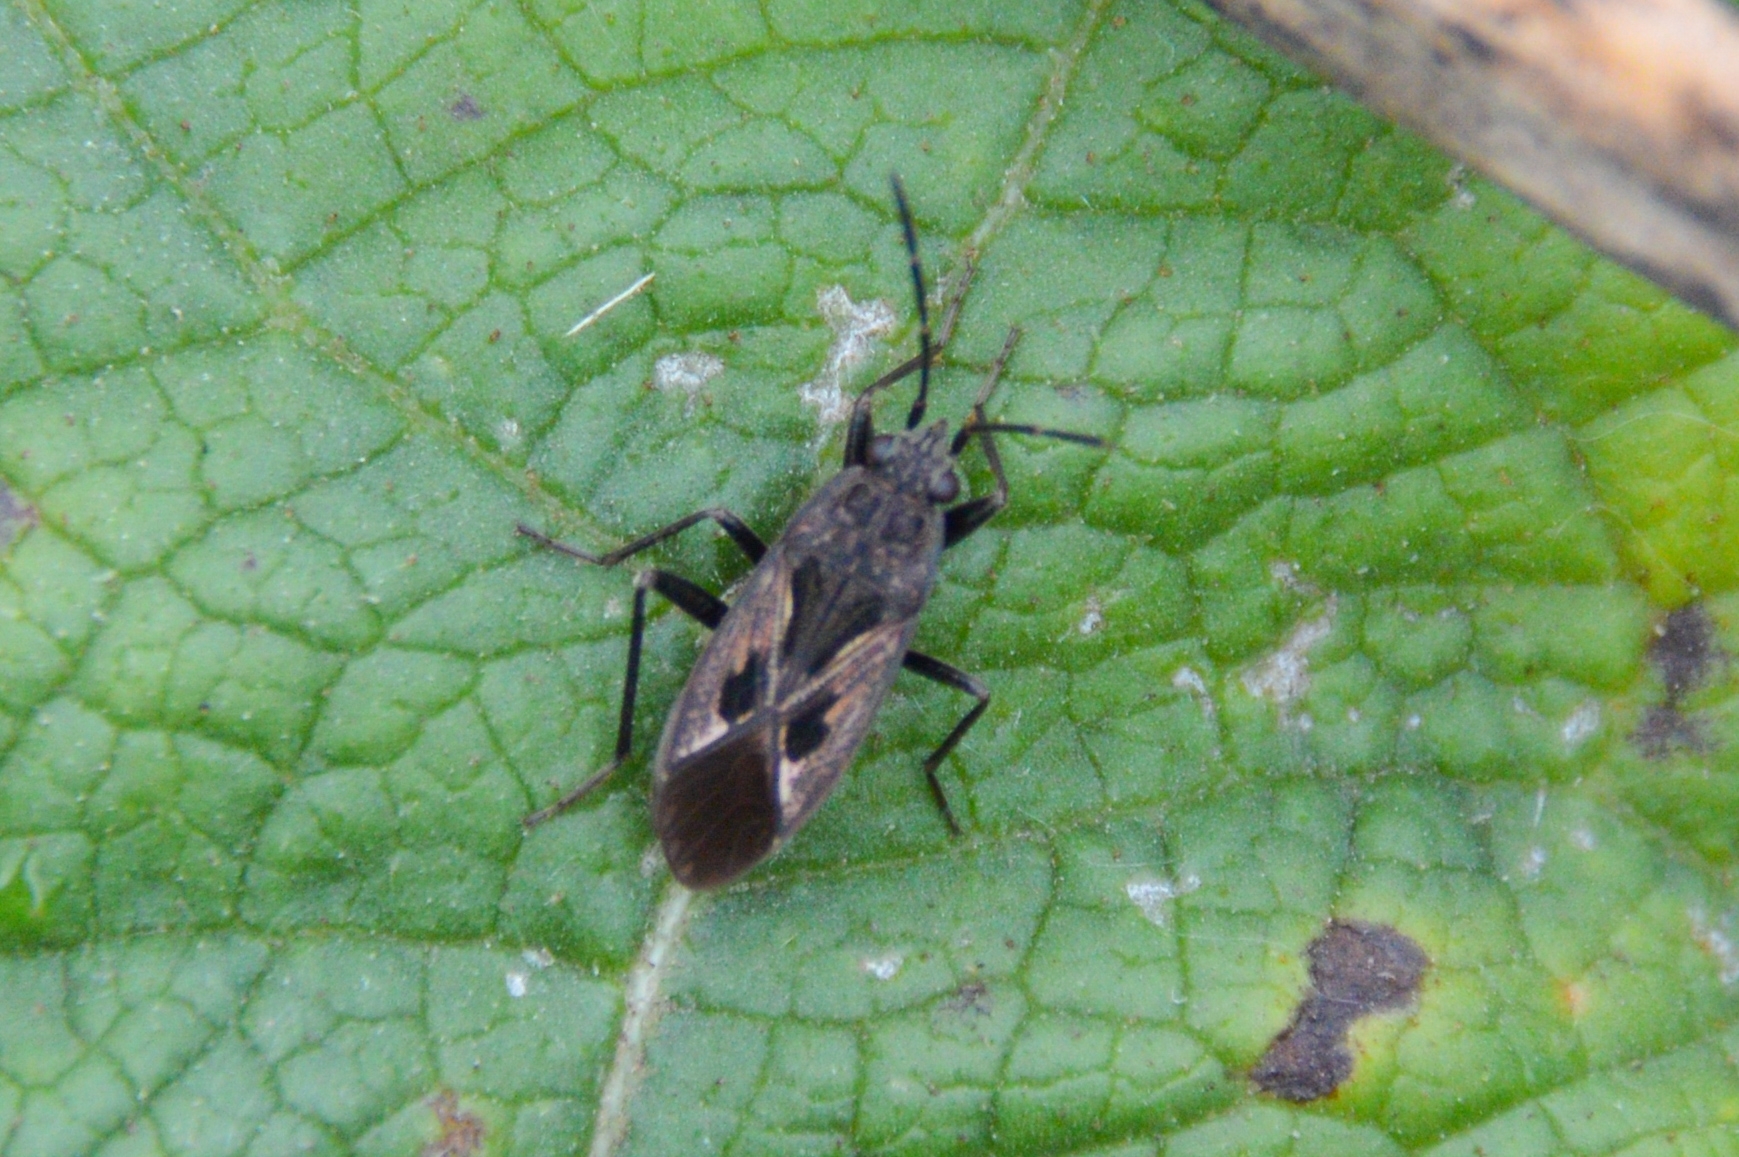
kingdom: Animalia
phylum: Arthropoda
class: Insecta
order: Hemiptera
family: Rhyparochromidae
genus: Rhyparochromus
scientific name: Rhyparochromus pini
